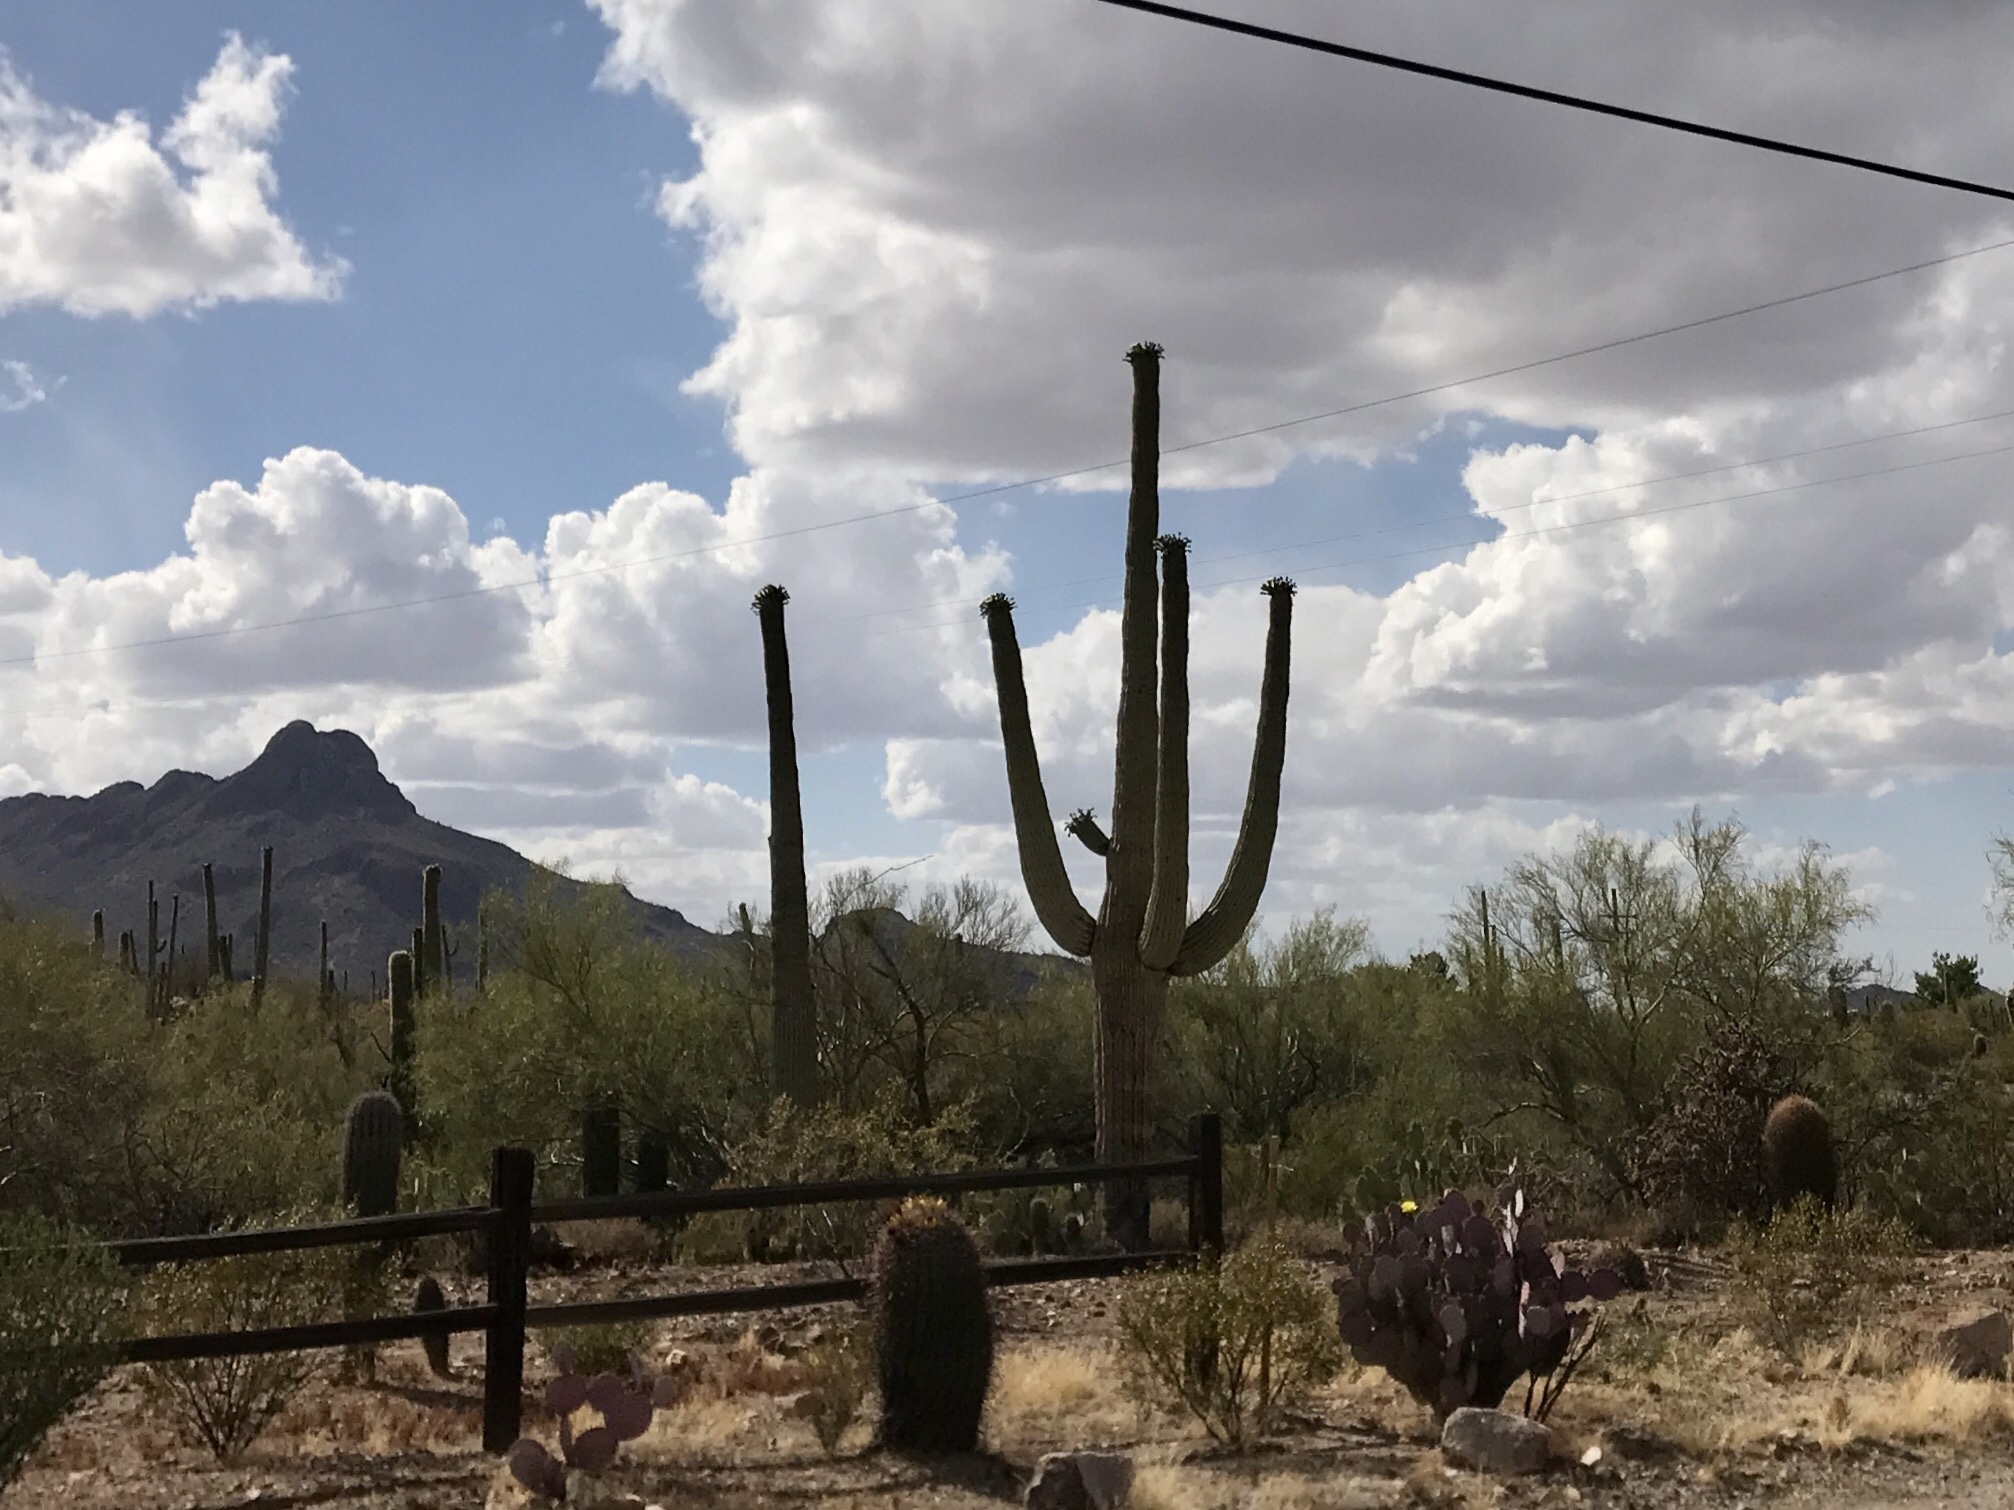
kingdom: Plantae
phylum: Tracheophyta
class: Magnoliopsida
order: Caryophyllales
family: Cactaceae
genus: Carnegiea
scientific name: Carnegiea gigantea
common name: Saguaro
